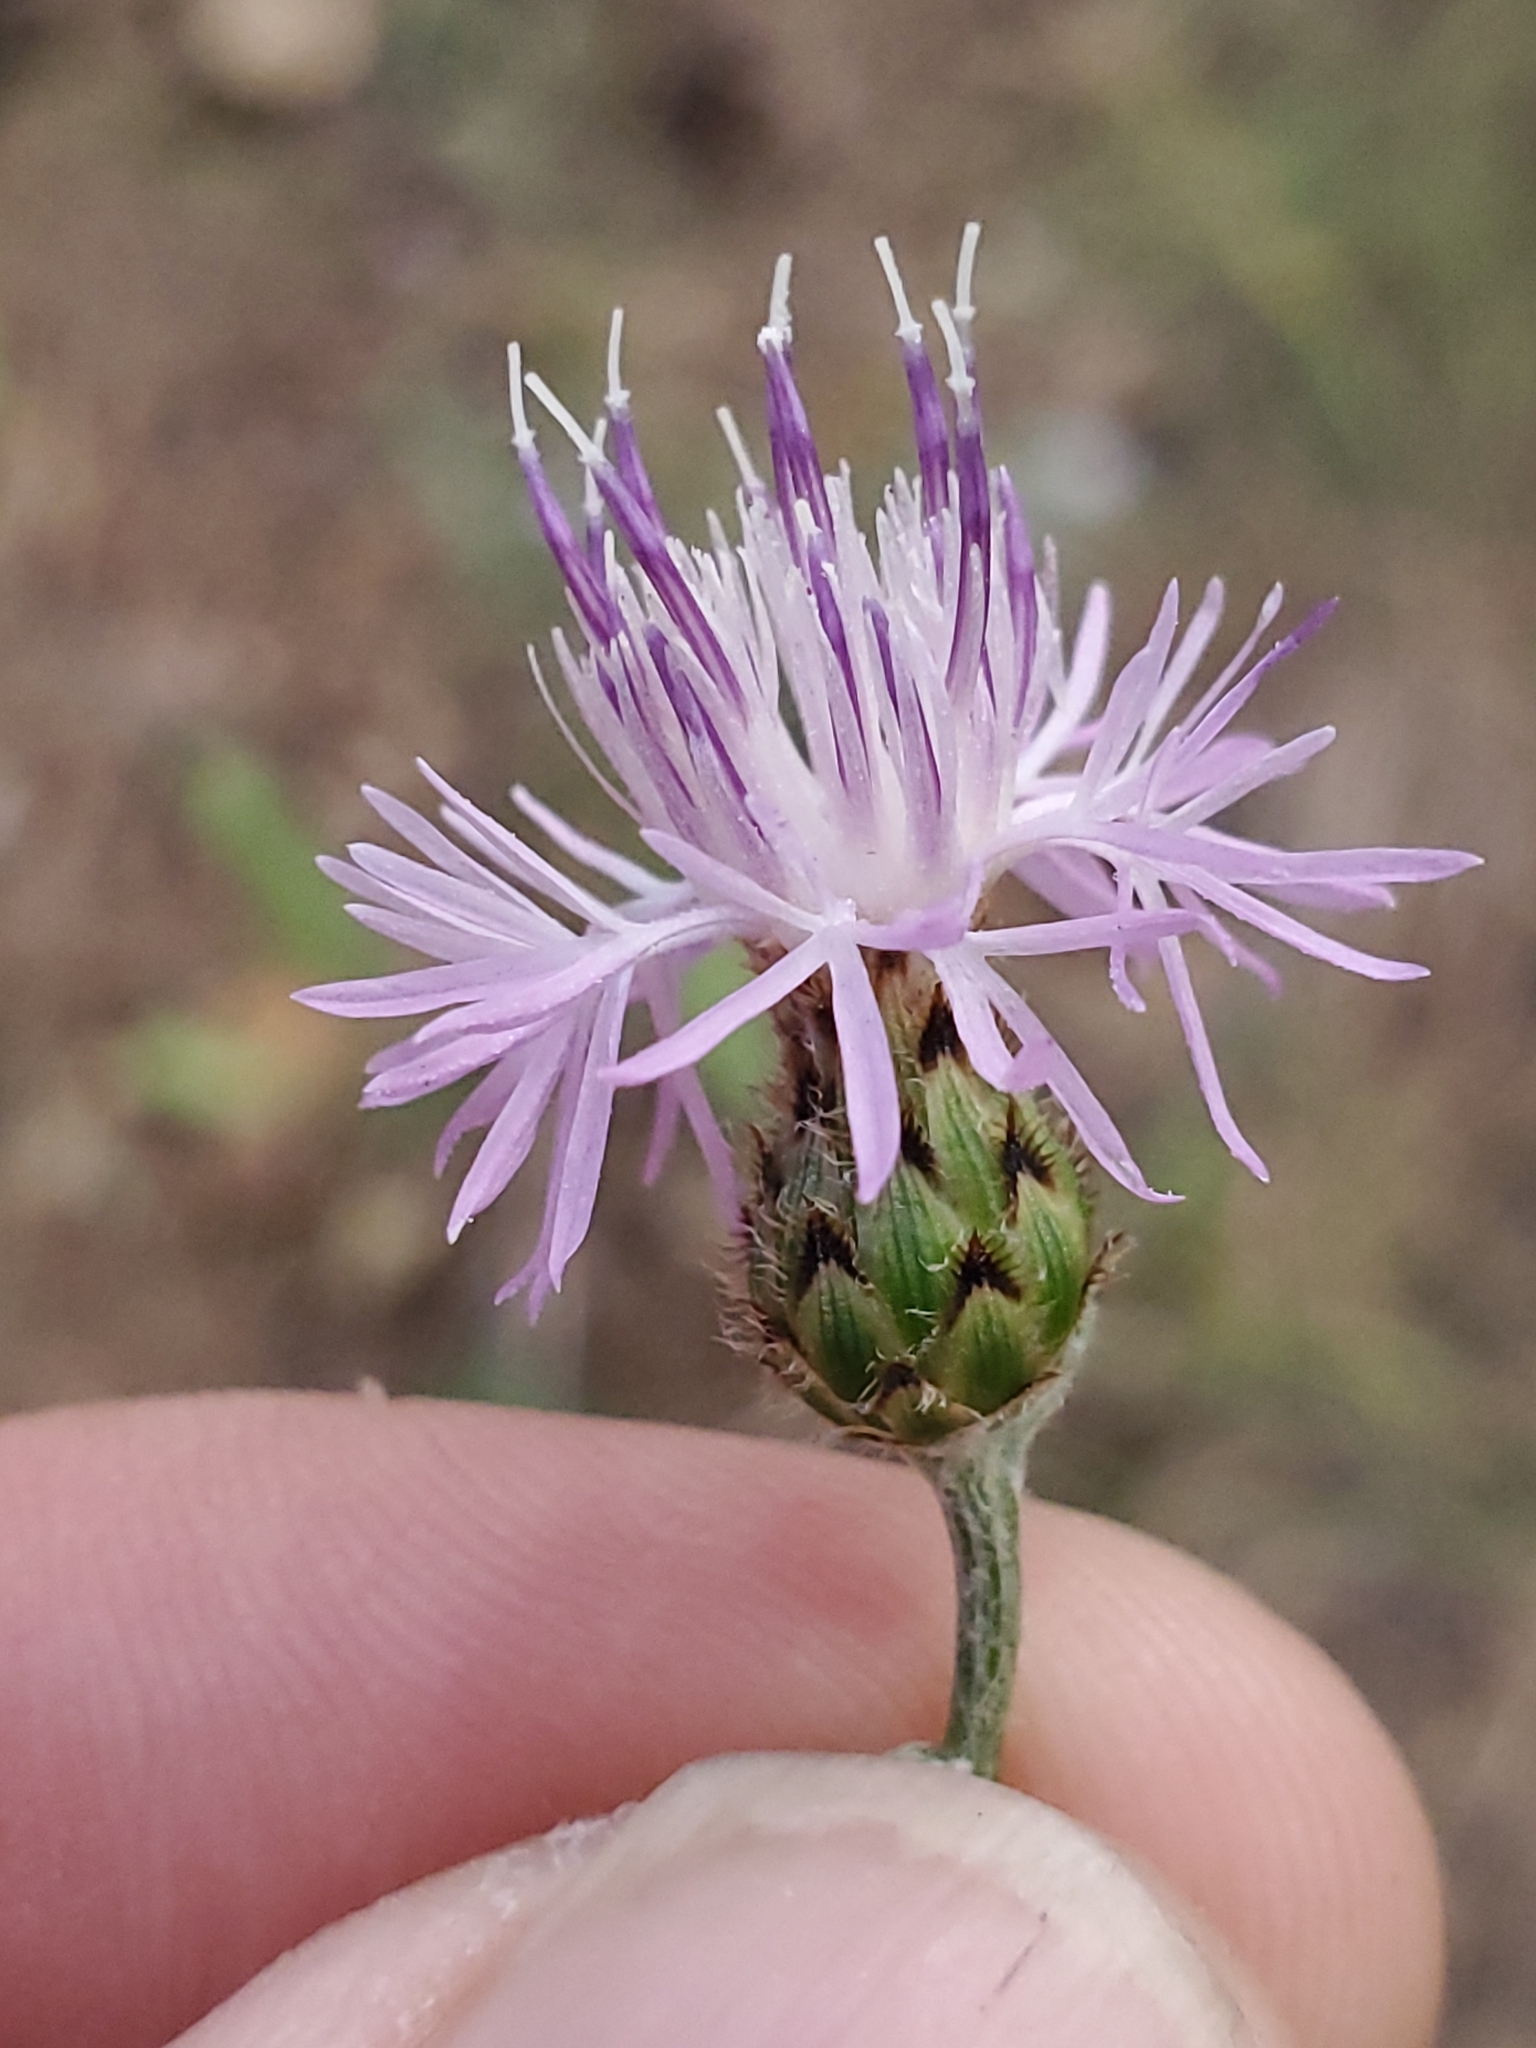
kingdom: Plantae
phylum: Tracheophyta
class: Magnoliopsida
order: Asterales
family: Asteraceae
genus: Centaurea
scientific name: Centaurea stoebe
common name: Spotted knapweed
